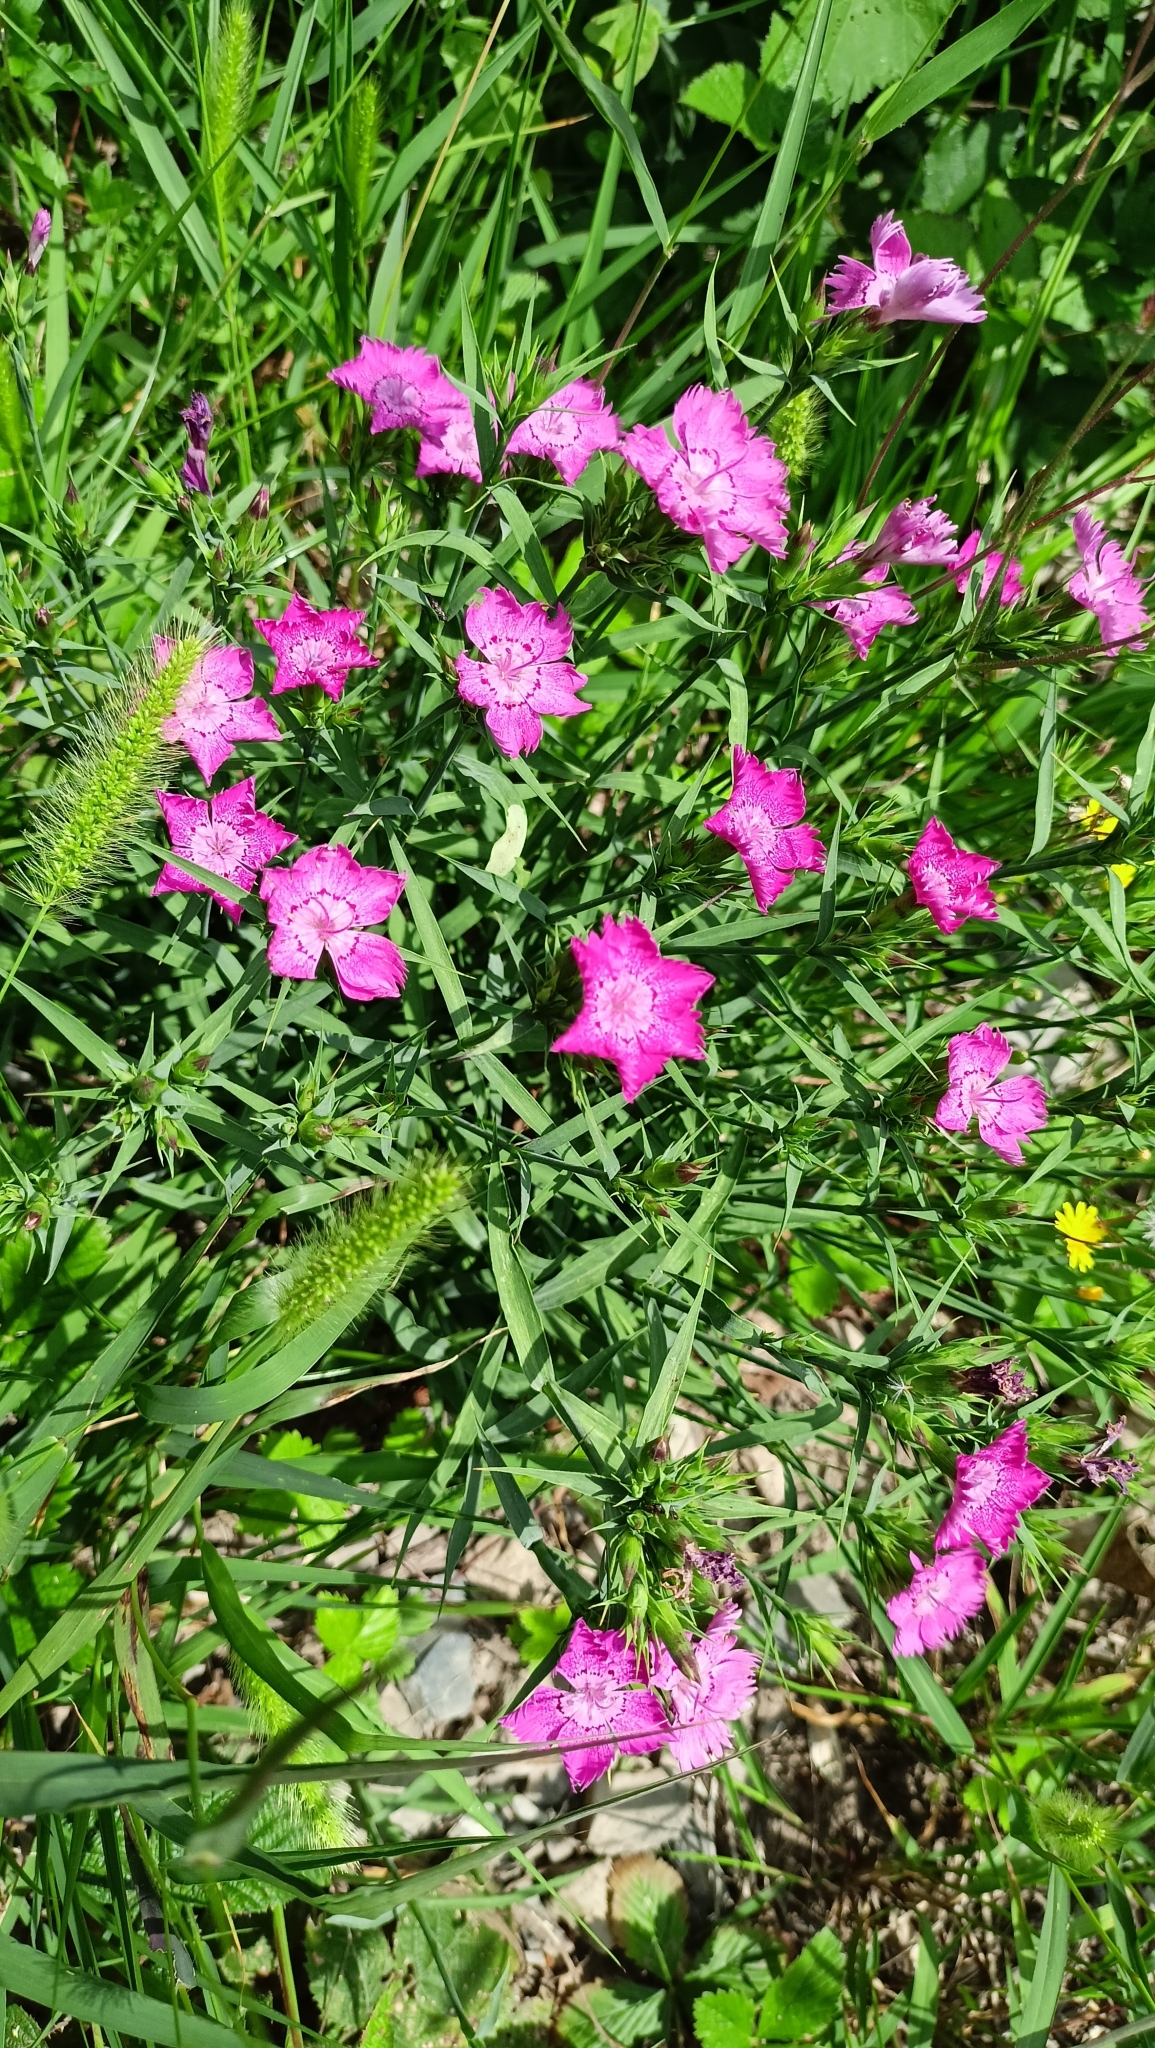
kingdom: Plantae
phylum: Tracheophyta
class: Magnoliopsida
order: Caryophyllales
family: Caryophyllaceae
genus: Dianthus
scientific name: Dianthus seguieri
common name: Ragged pink
